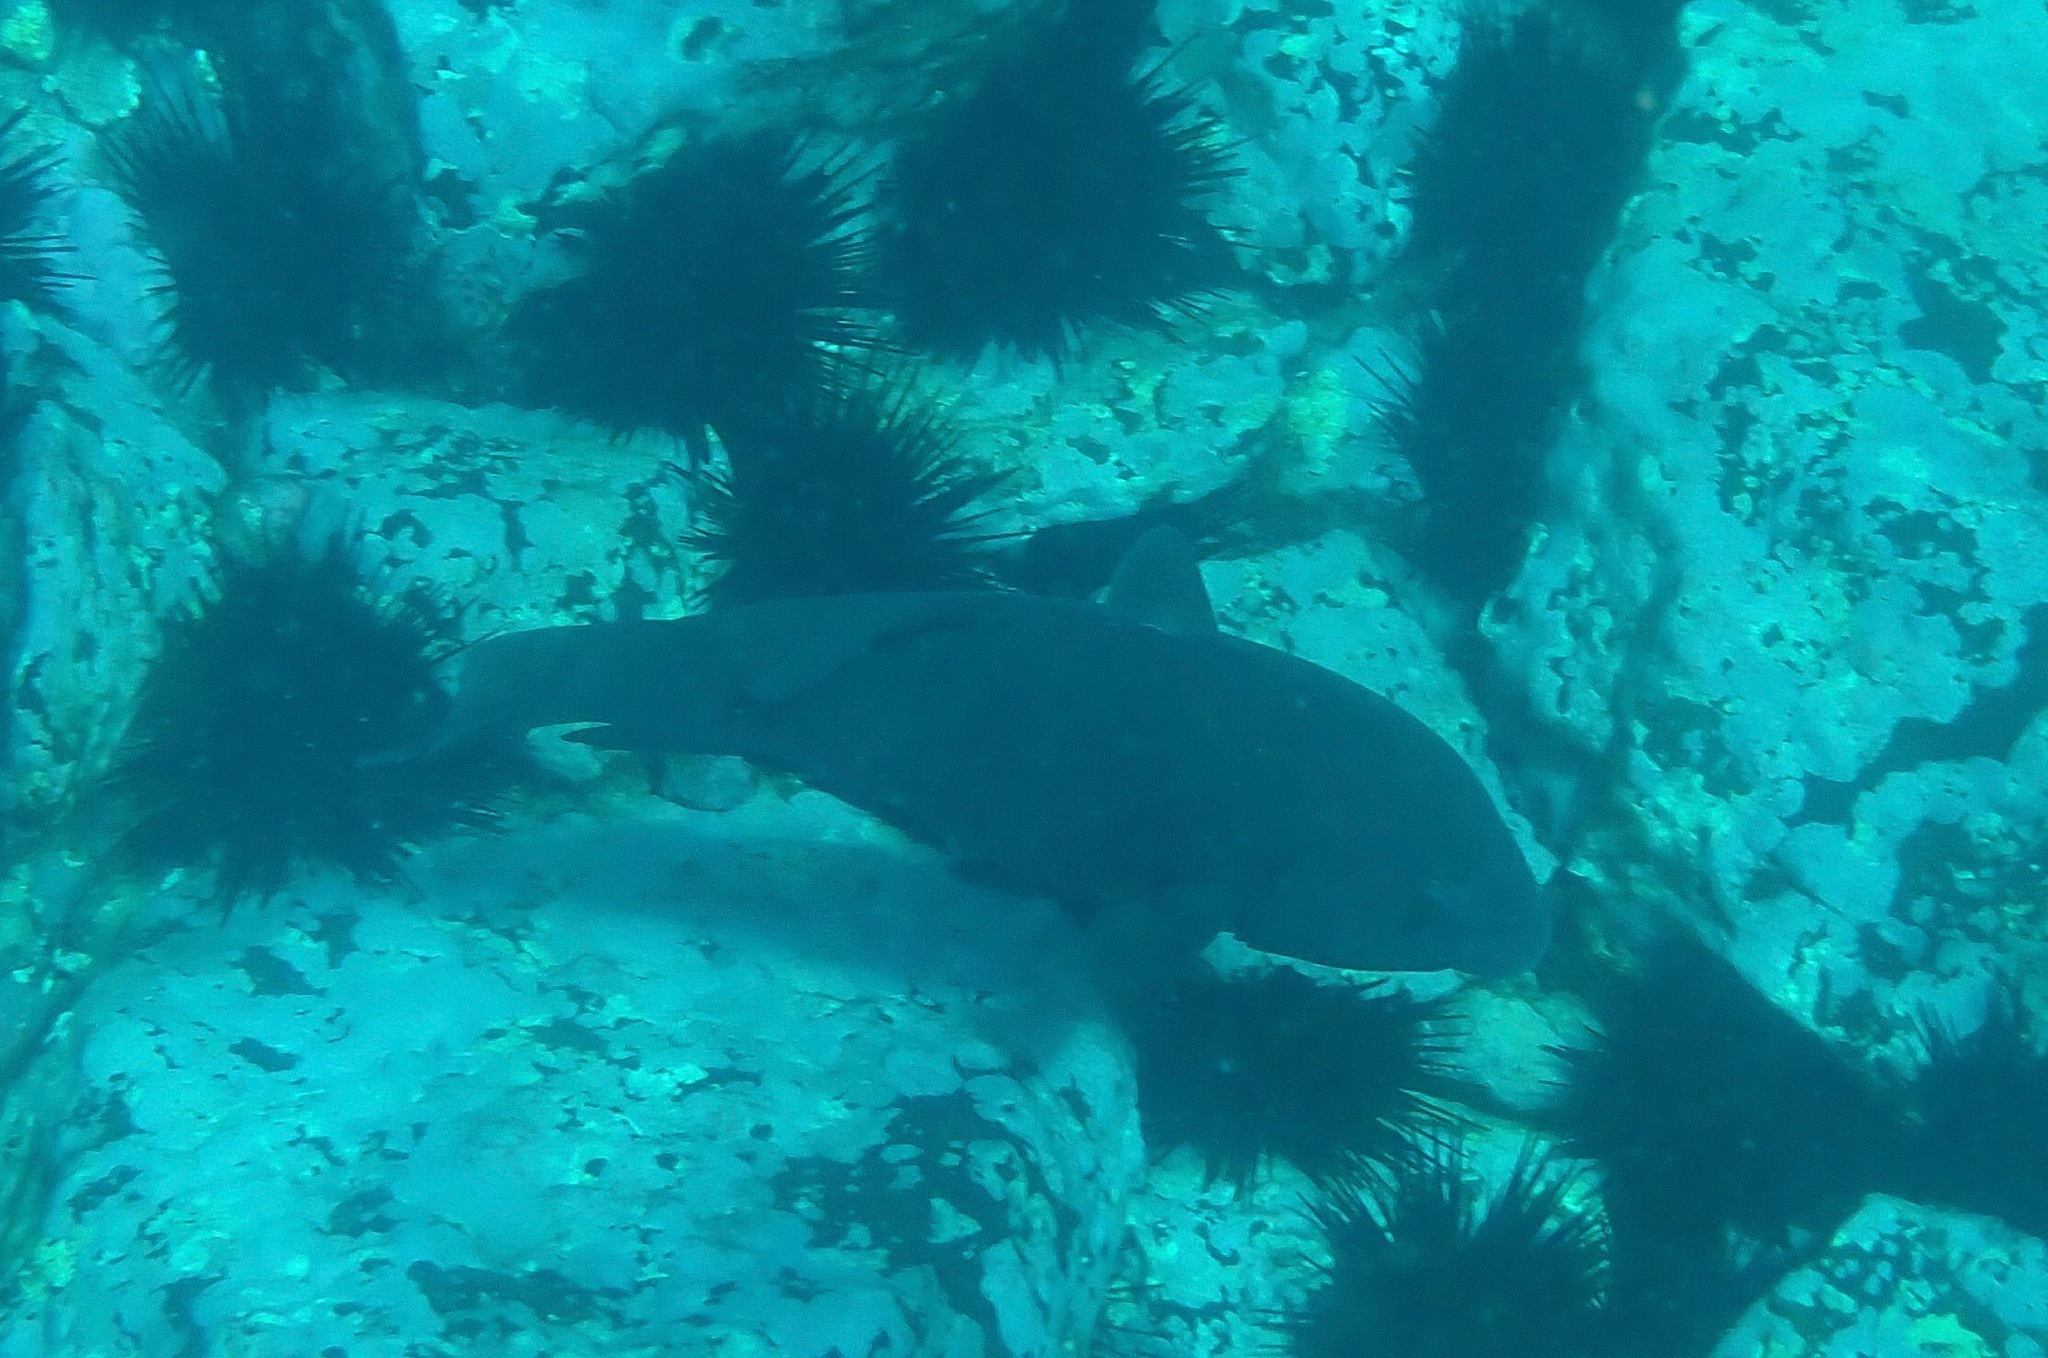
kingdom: Animalia
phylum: Chordata
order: Perciformes
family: Labridae
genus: Achoerodus
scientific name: Achoerodus viridis
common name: Brown groper
